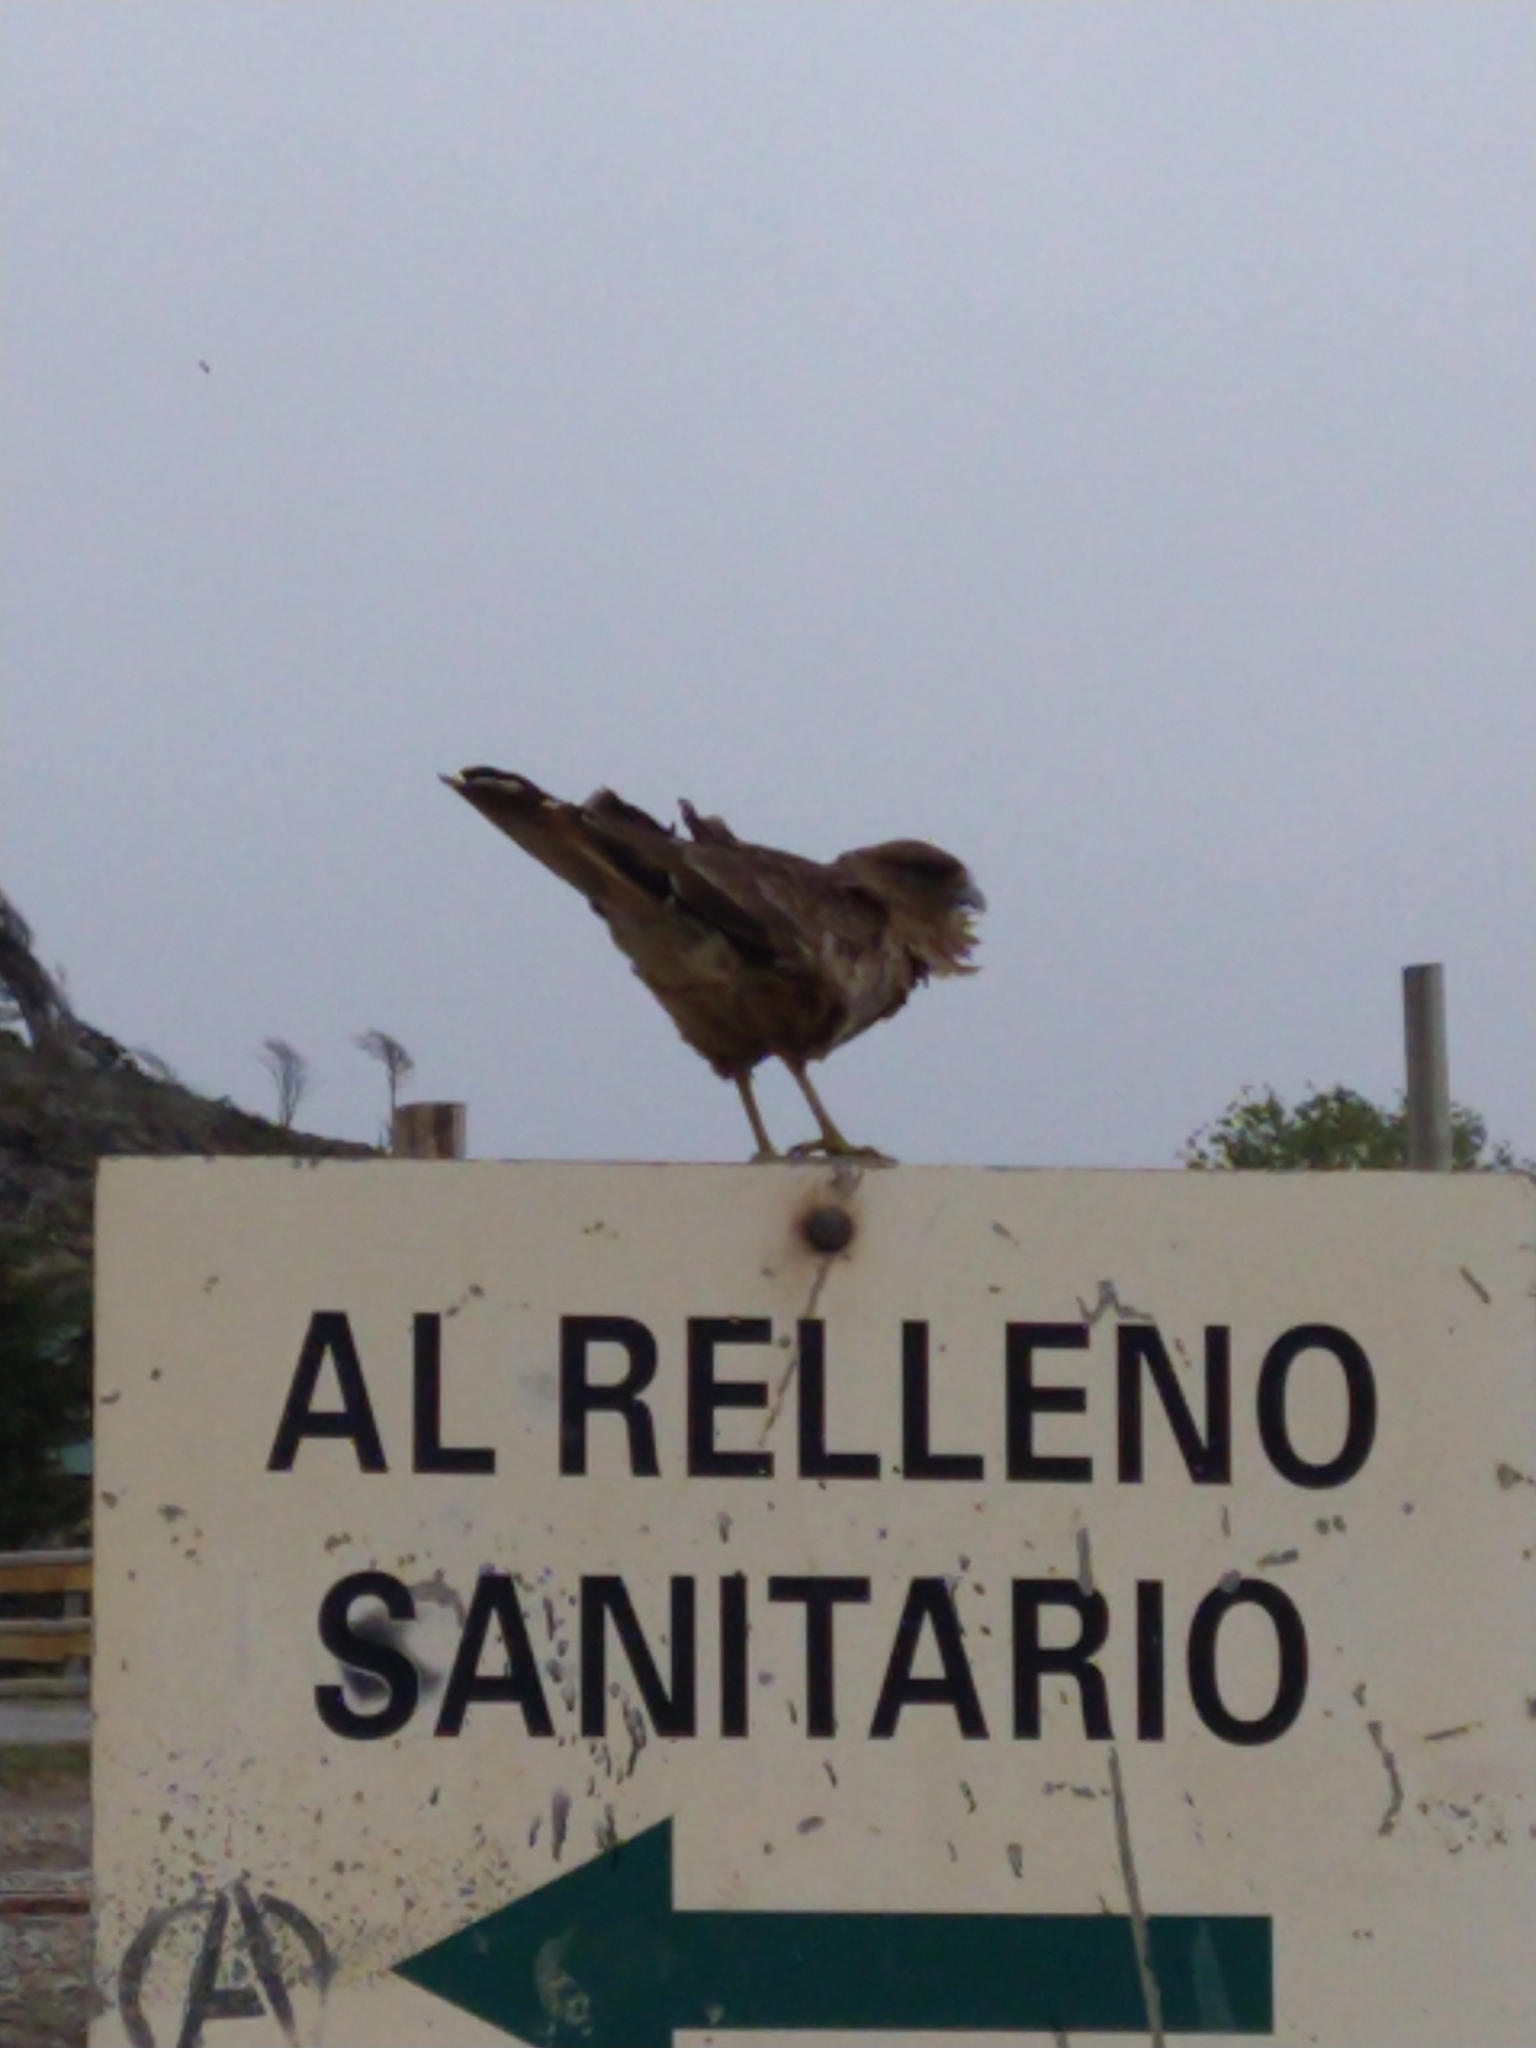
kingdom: Animalia
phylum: Chordata
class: Aves
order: Falconiformes
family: Falconidae
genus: Daptrius
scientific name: Daptrius
